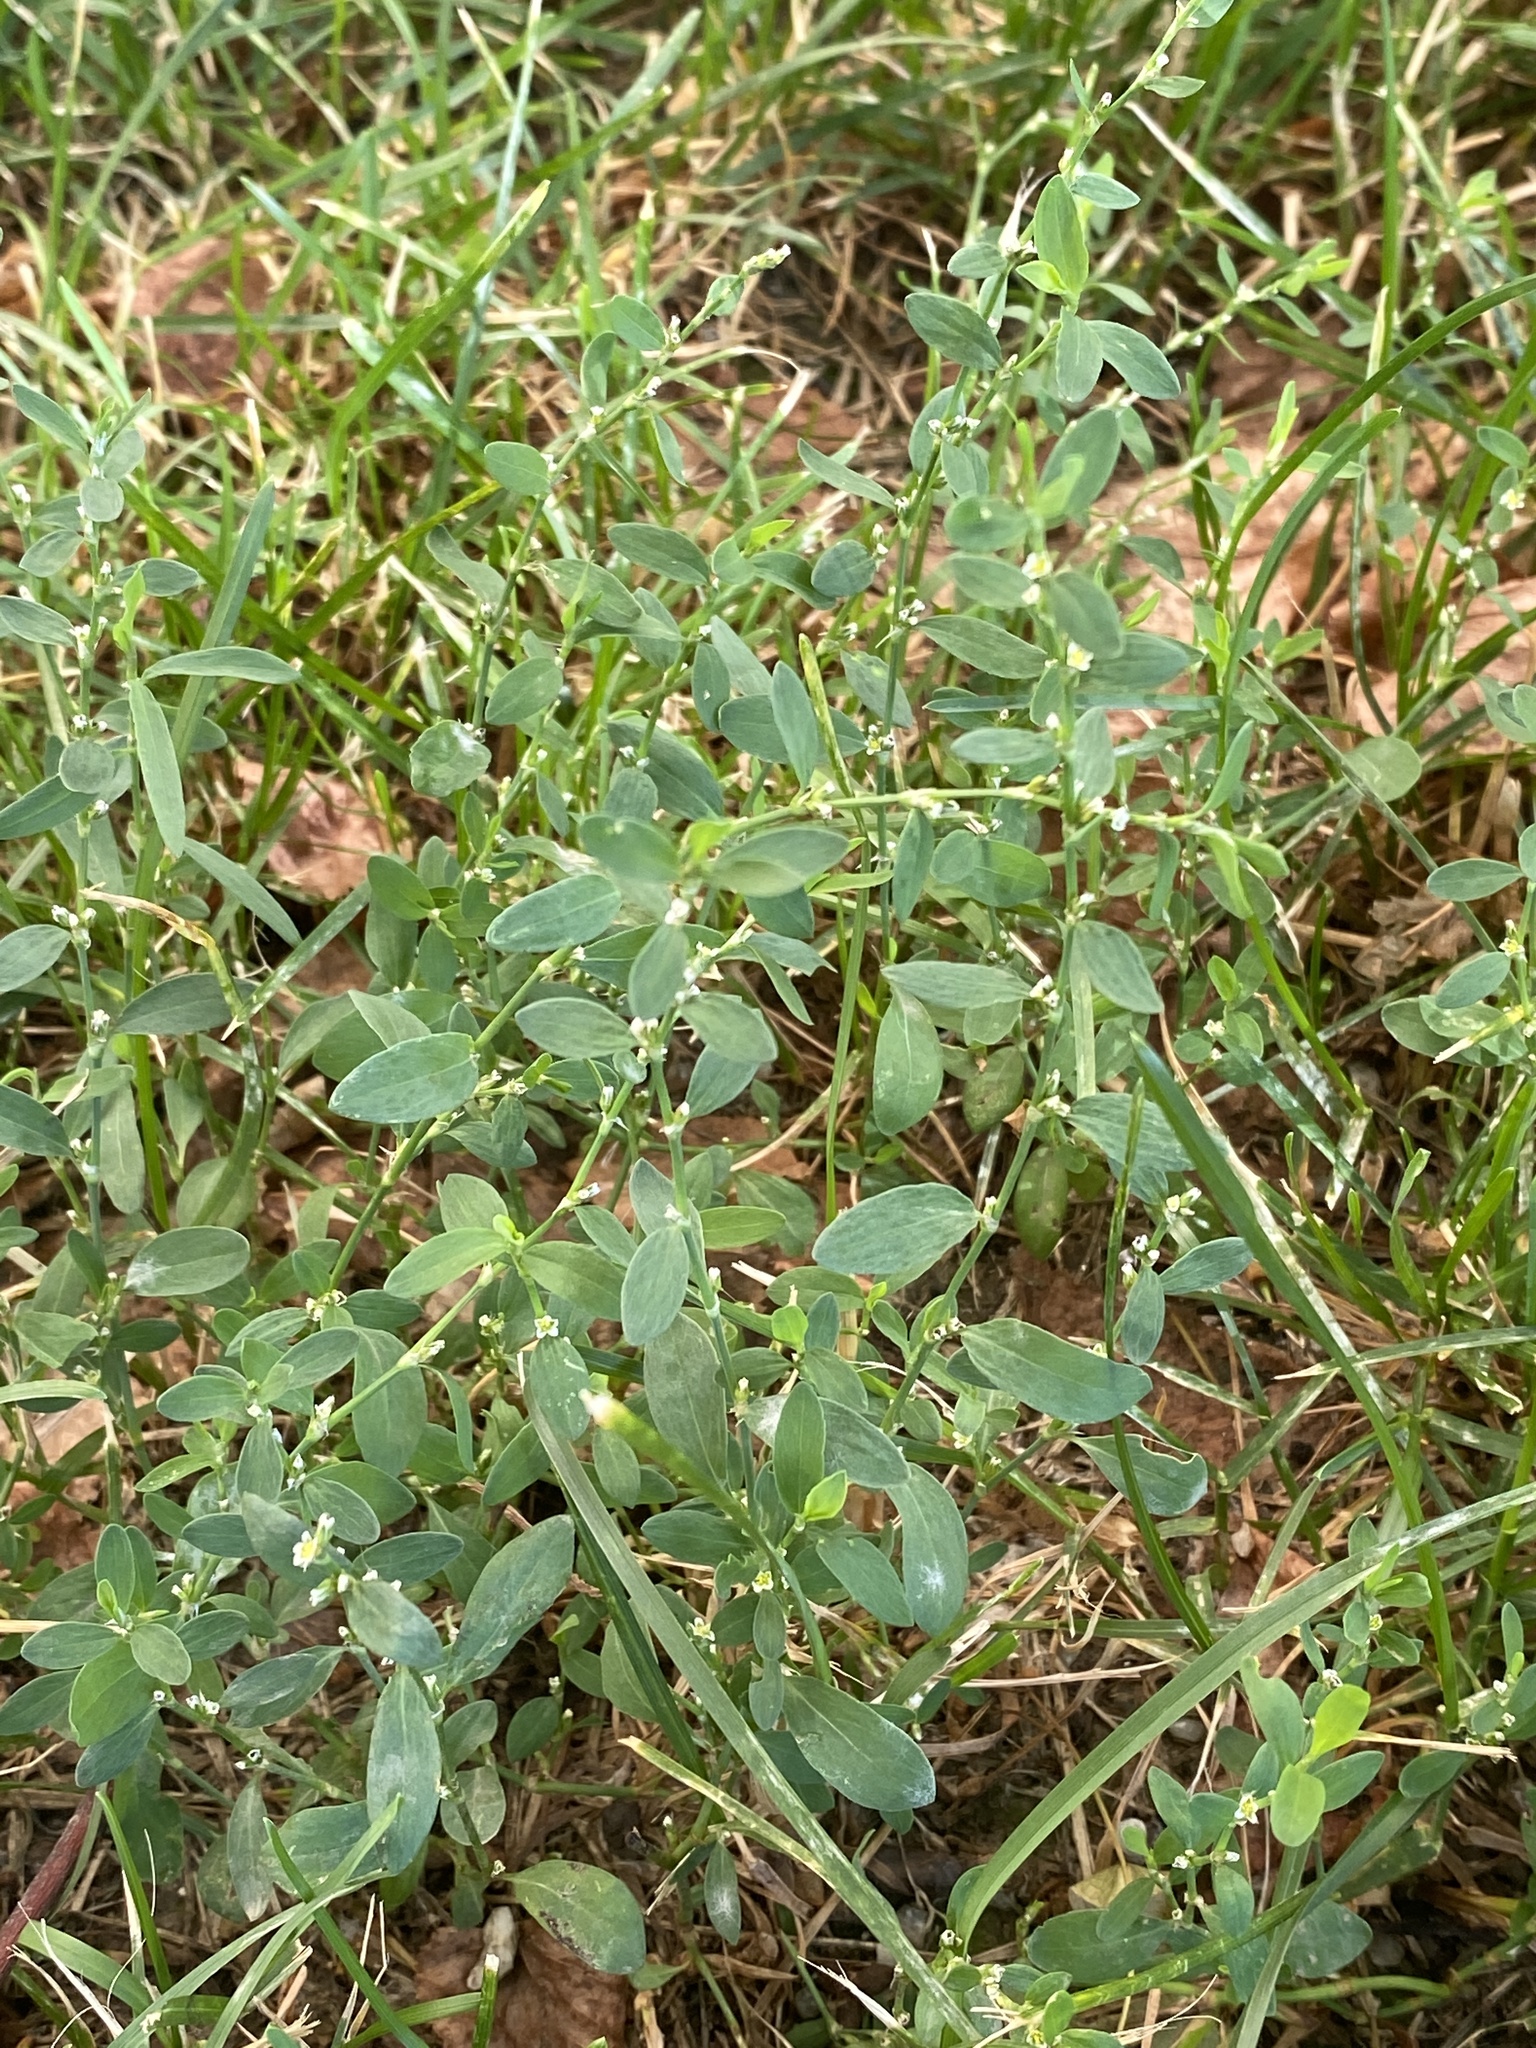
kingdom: Plantae
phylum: Tracheophyta
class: Magnoliopsida
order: Caryophyllales
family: Polygonaceae
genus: Polygonum
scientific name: Polygonum
